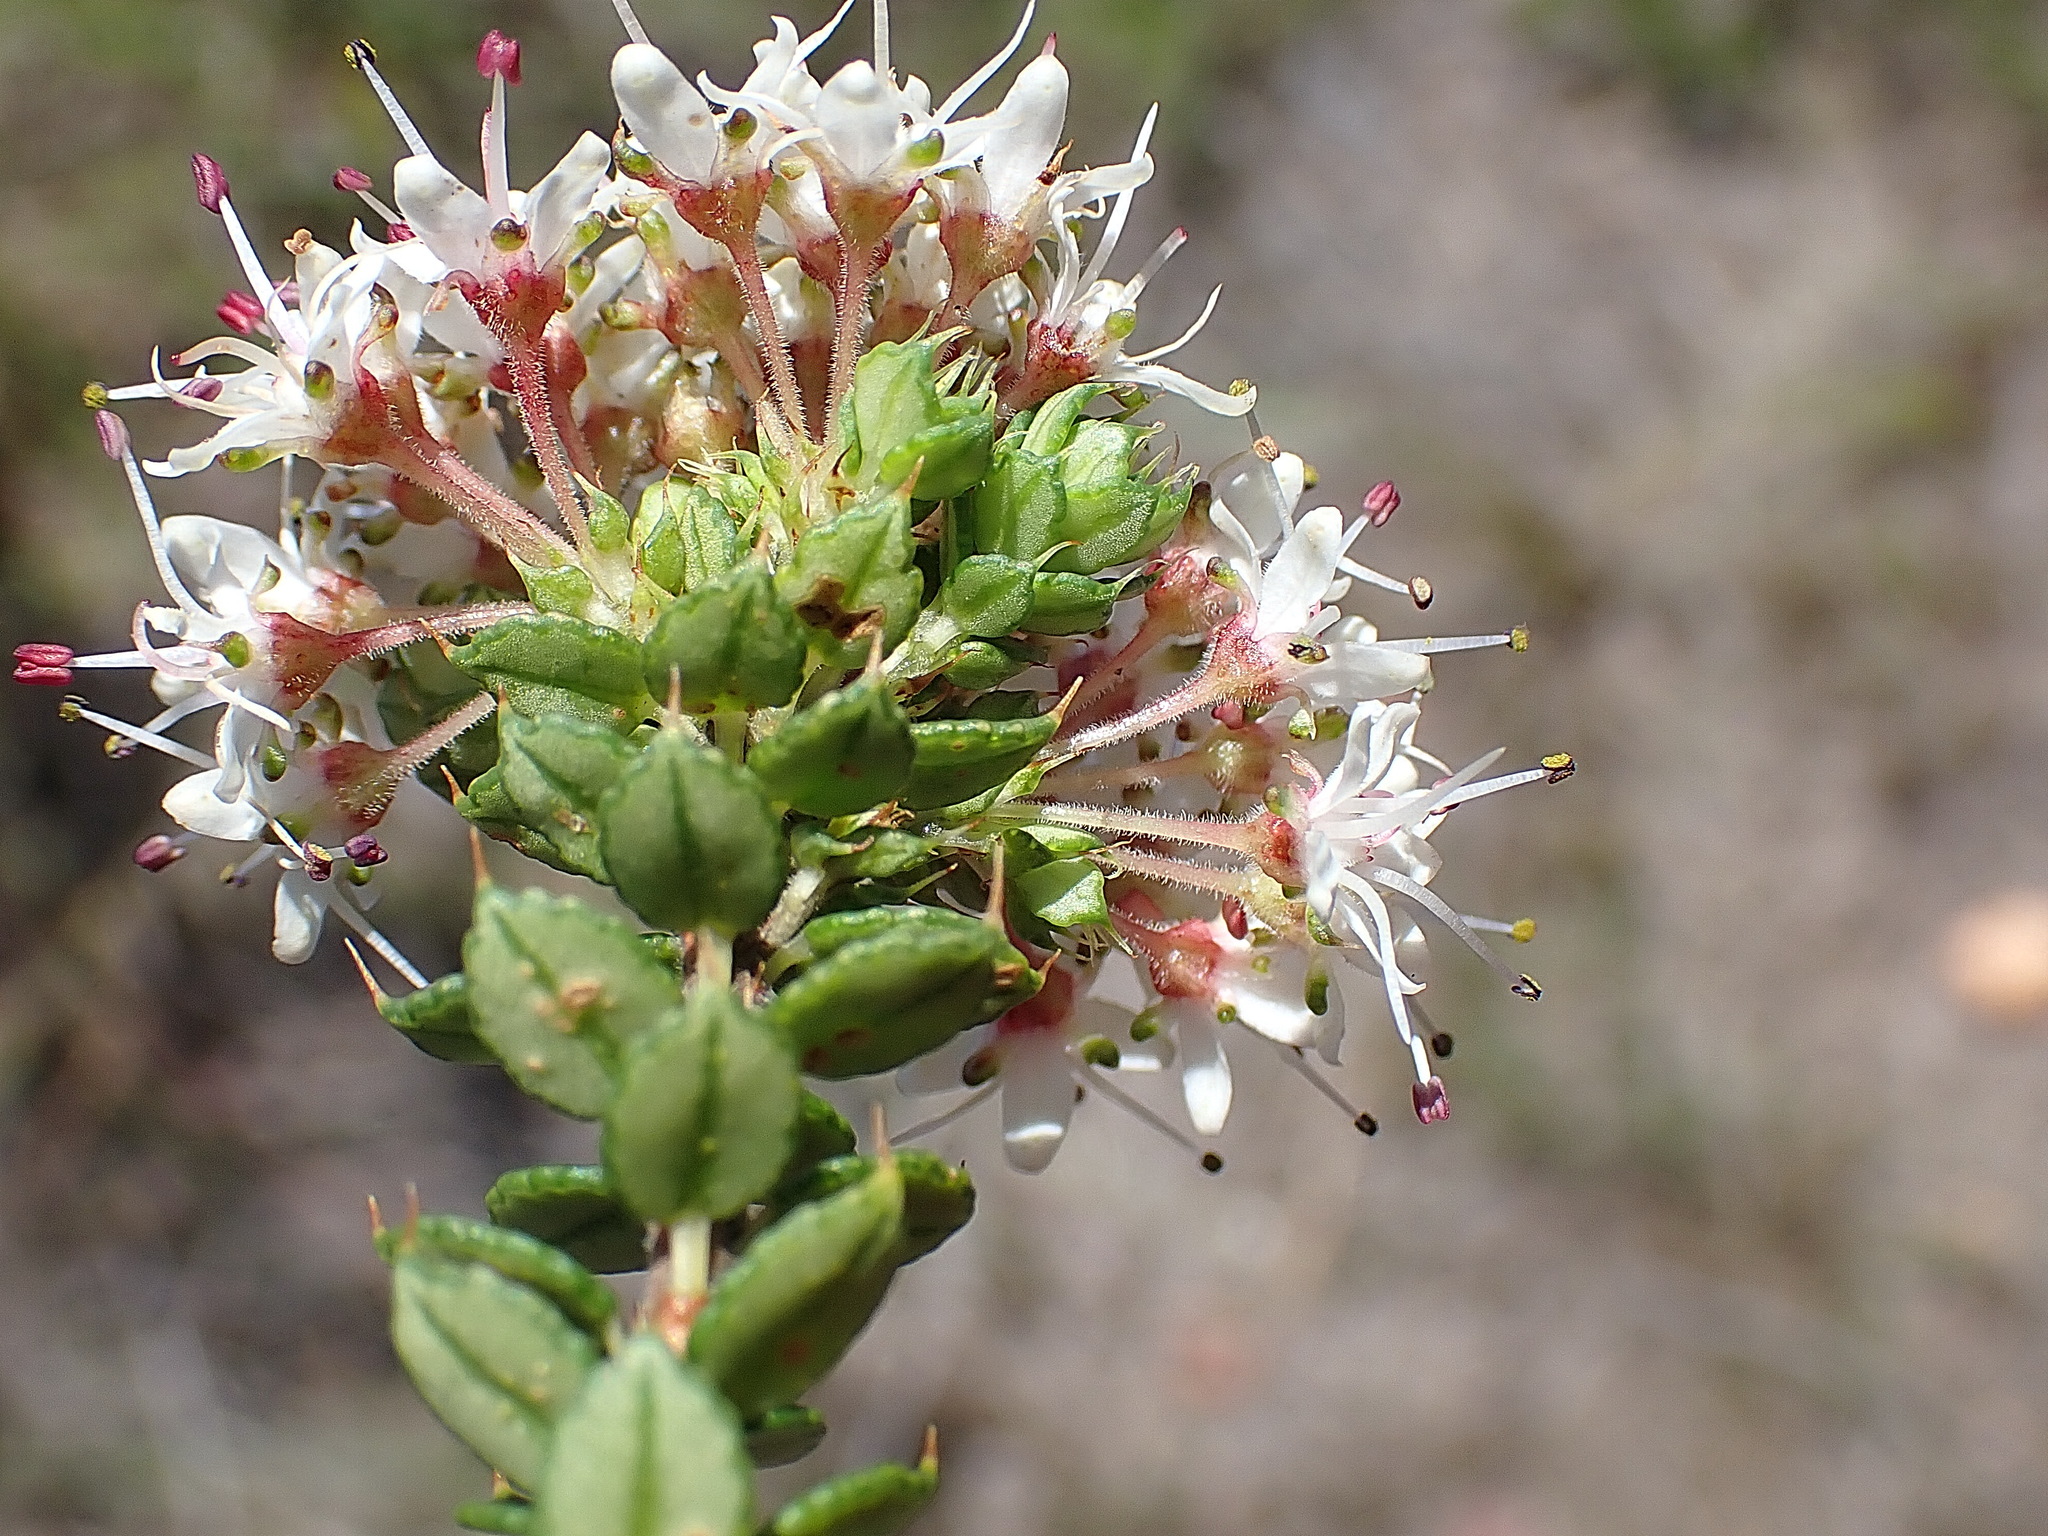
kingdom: Plantae
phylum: Tracheophyta
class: Magnoliopsida
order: Sapindales
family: Rutaceae
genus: Agathosma
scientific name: Agathosma puberula
